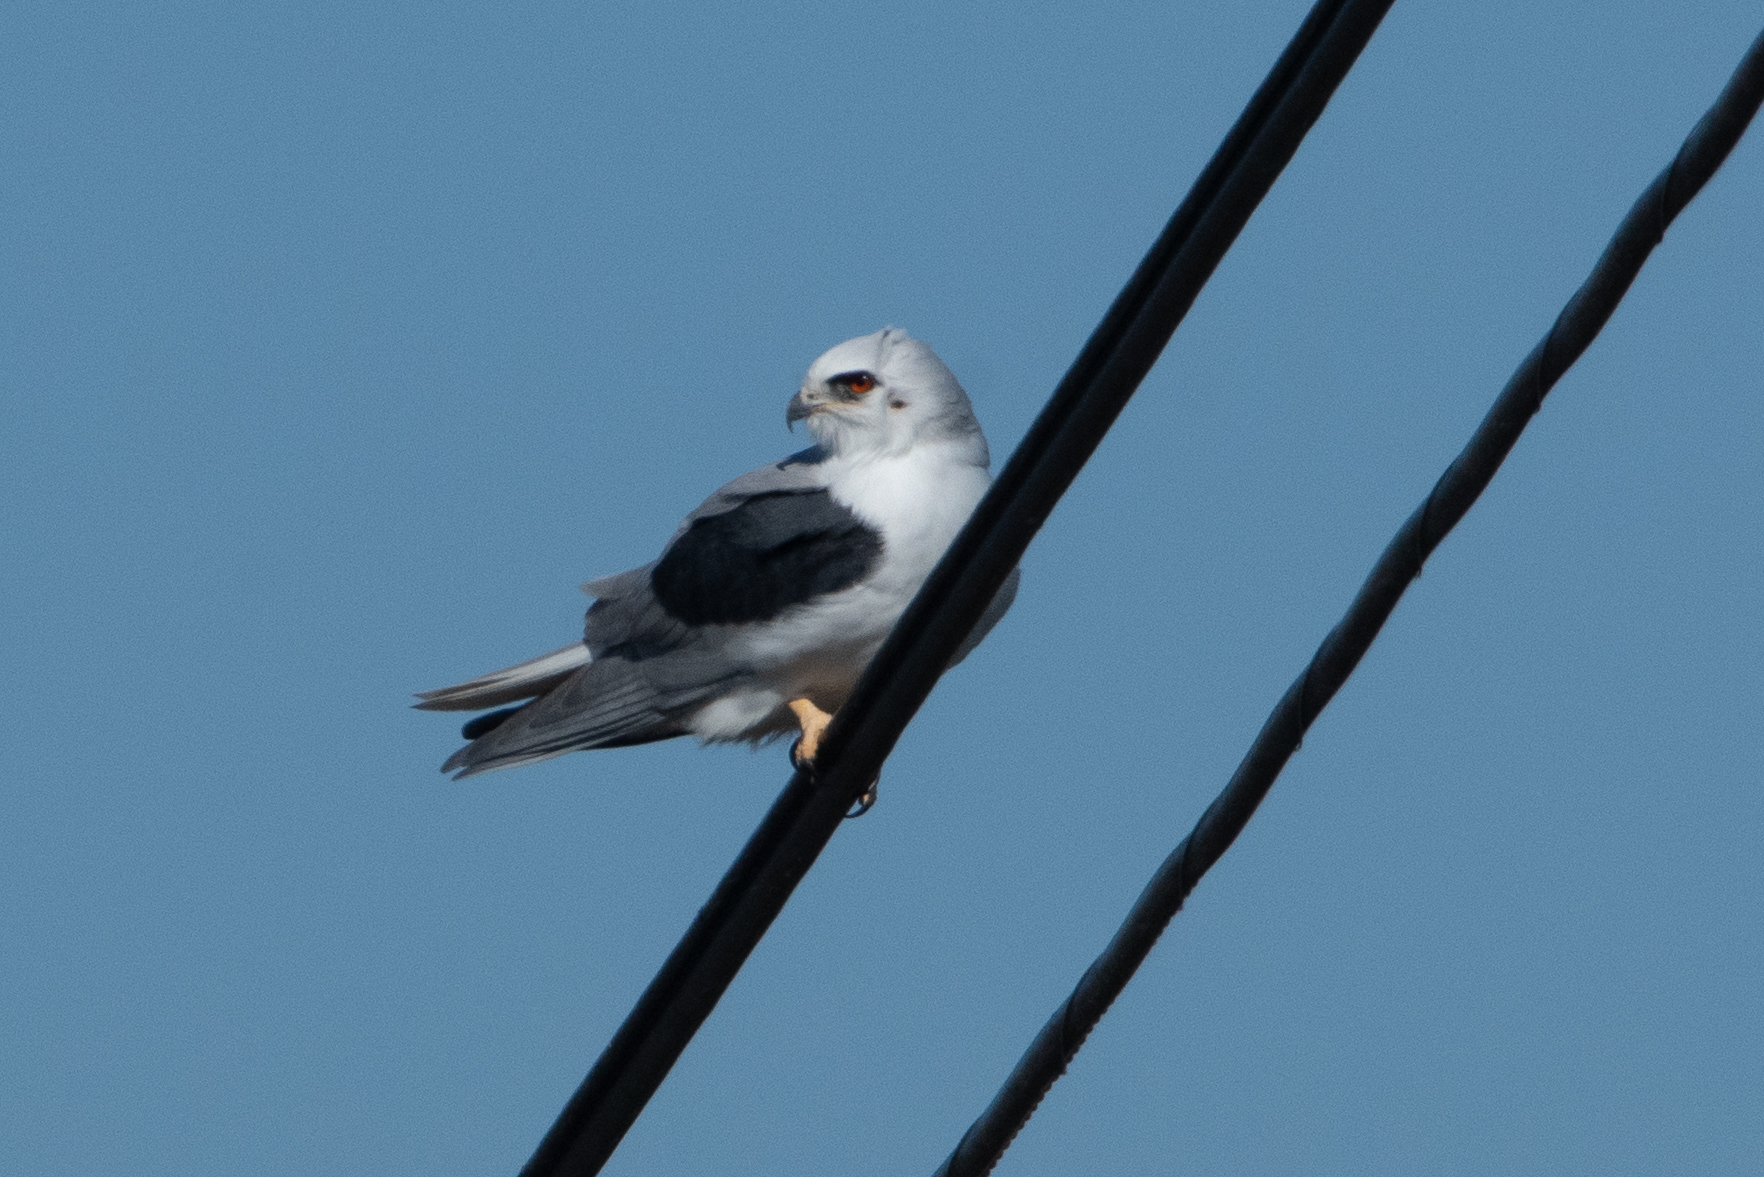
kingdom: Animalia
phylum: Chordata
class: Aves
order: Accipitriformes
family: Accipitridae
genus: Elanus
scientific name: Elanus leucurus
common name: White-tailed kite
